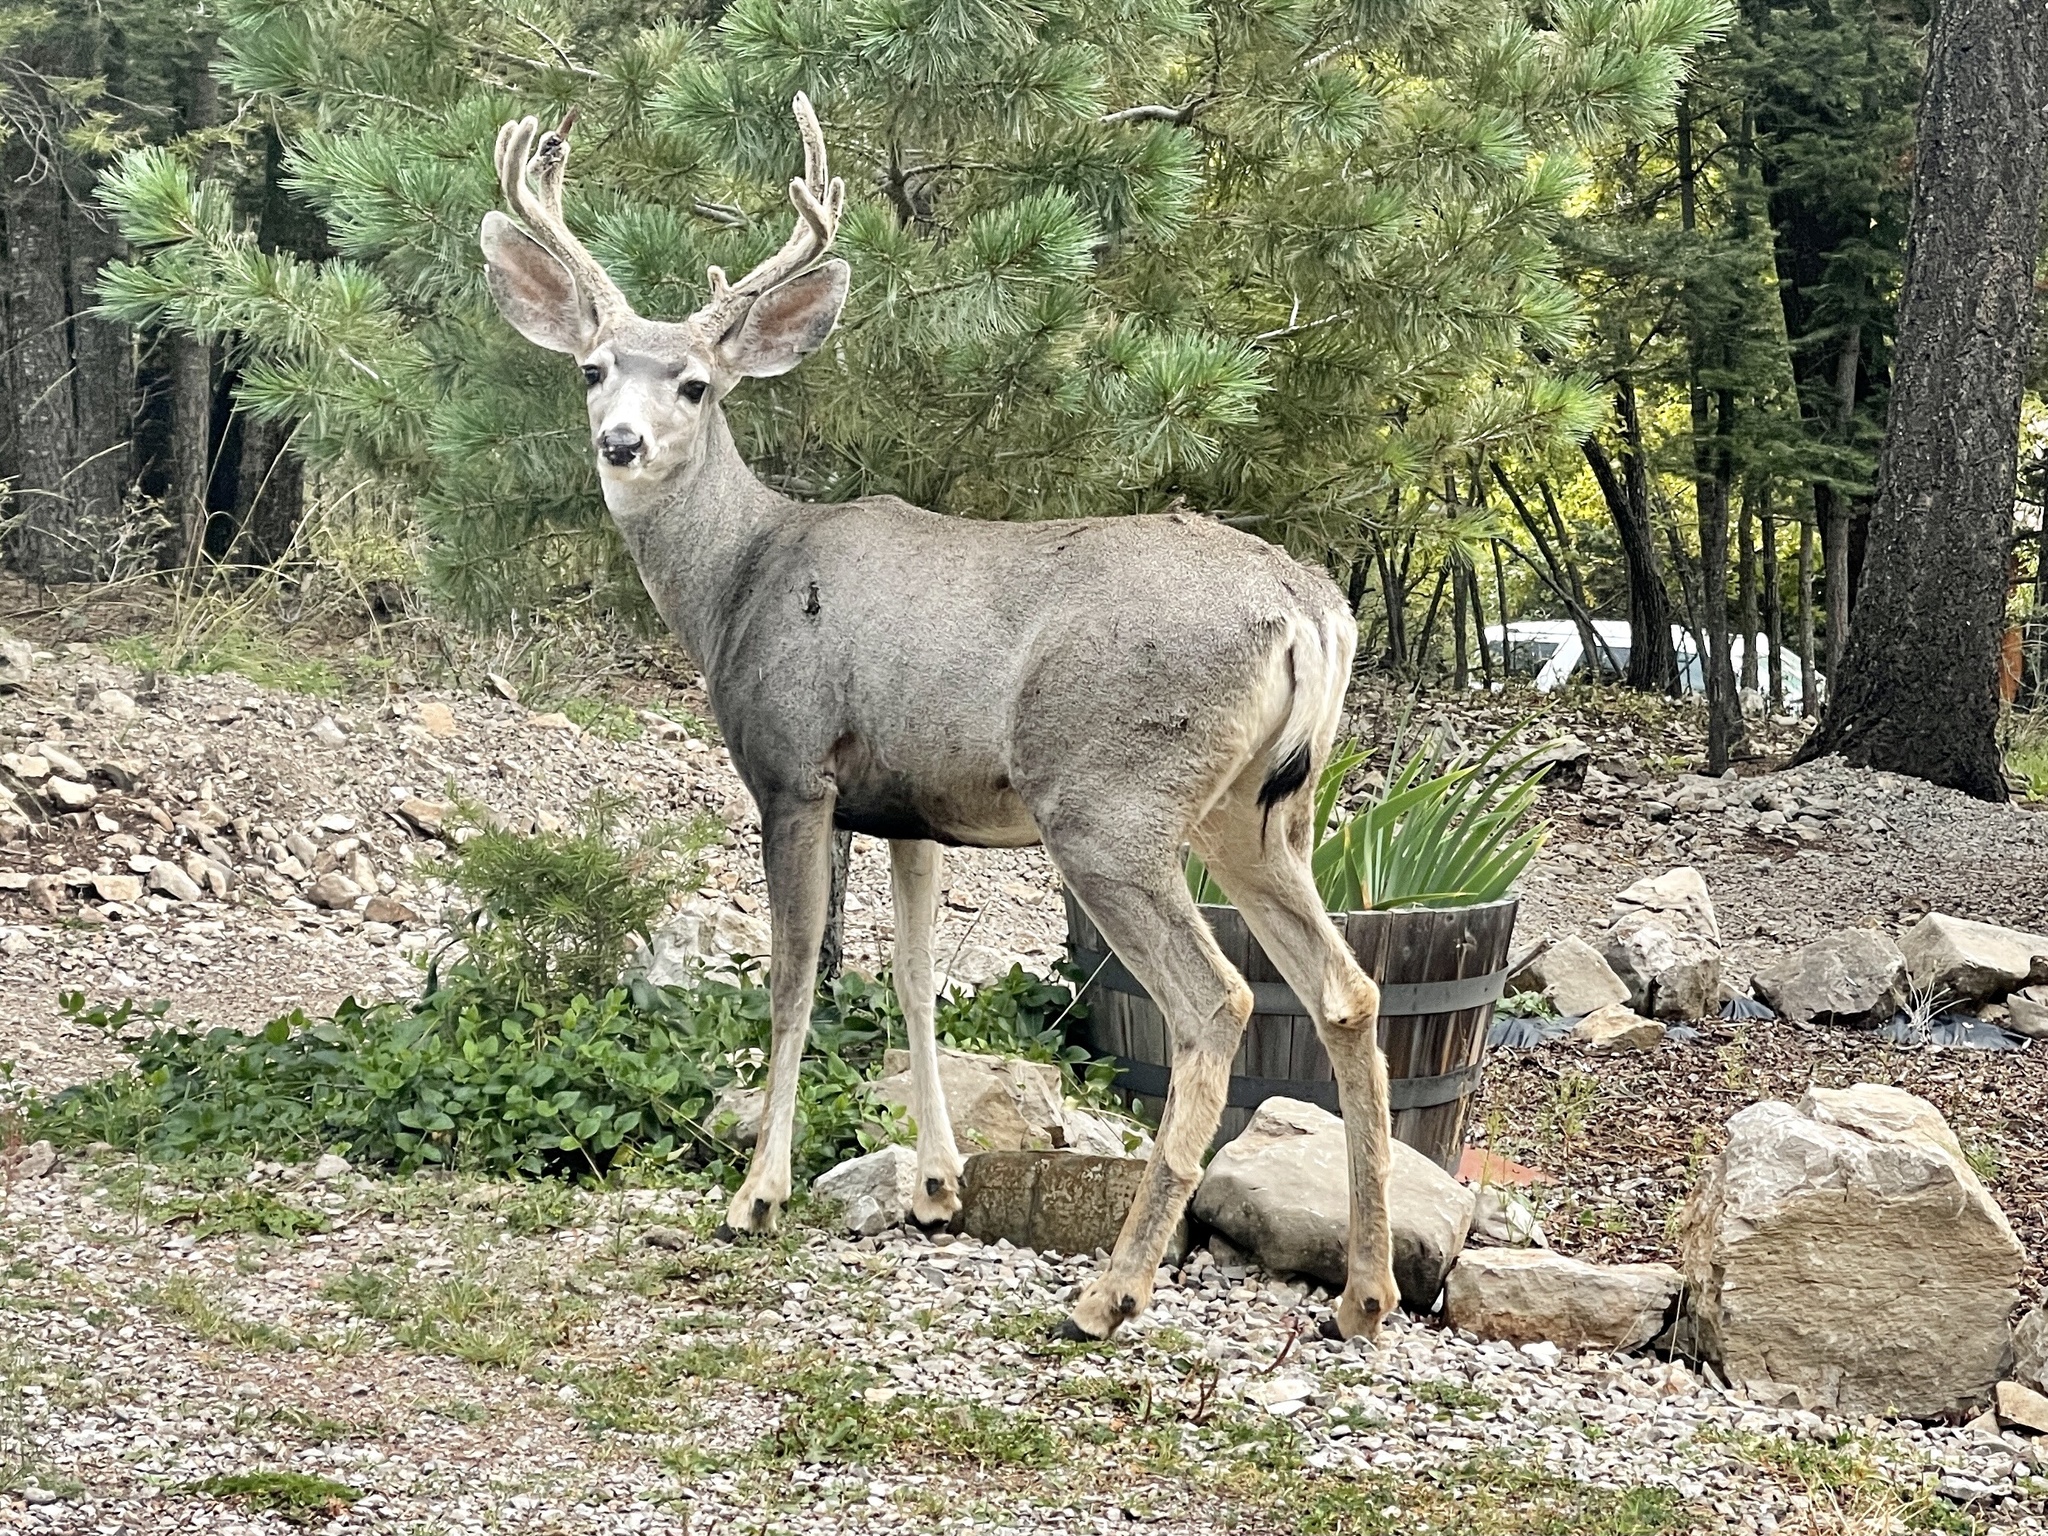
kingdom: Animalia
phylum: Chordata
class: Mammalia
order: Artiodactyla
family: Cervidae
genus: Odocoileus
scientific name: Odocoileus hemionus
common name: Mule deer
